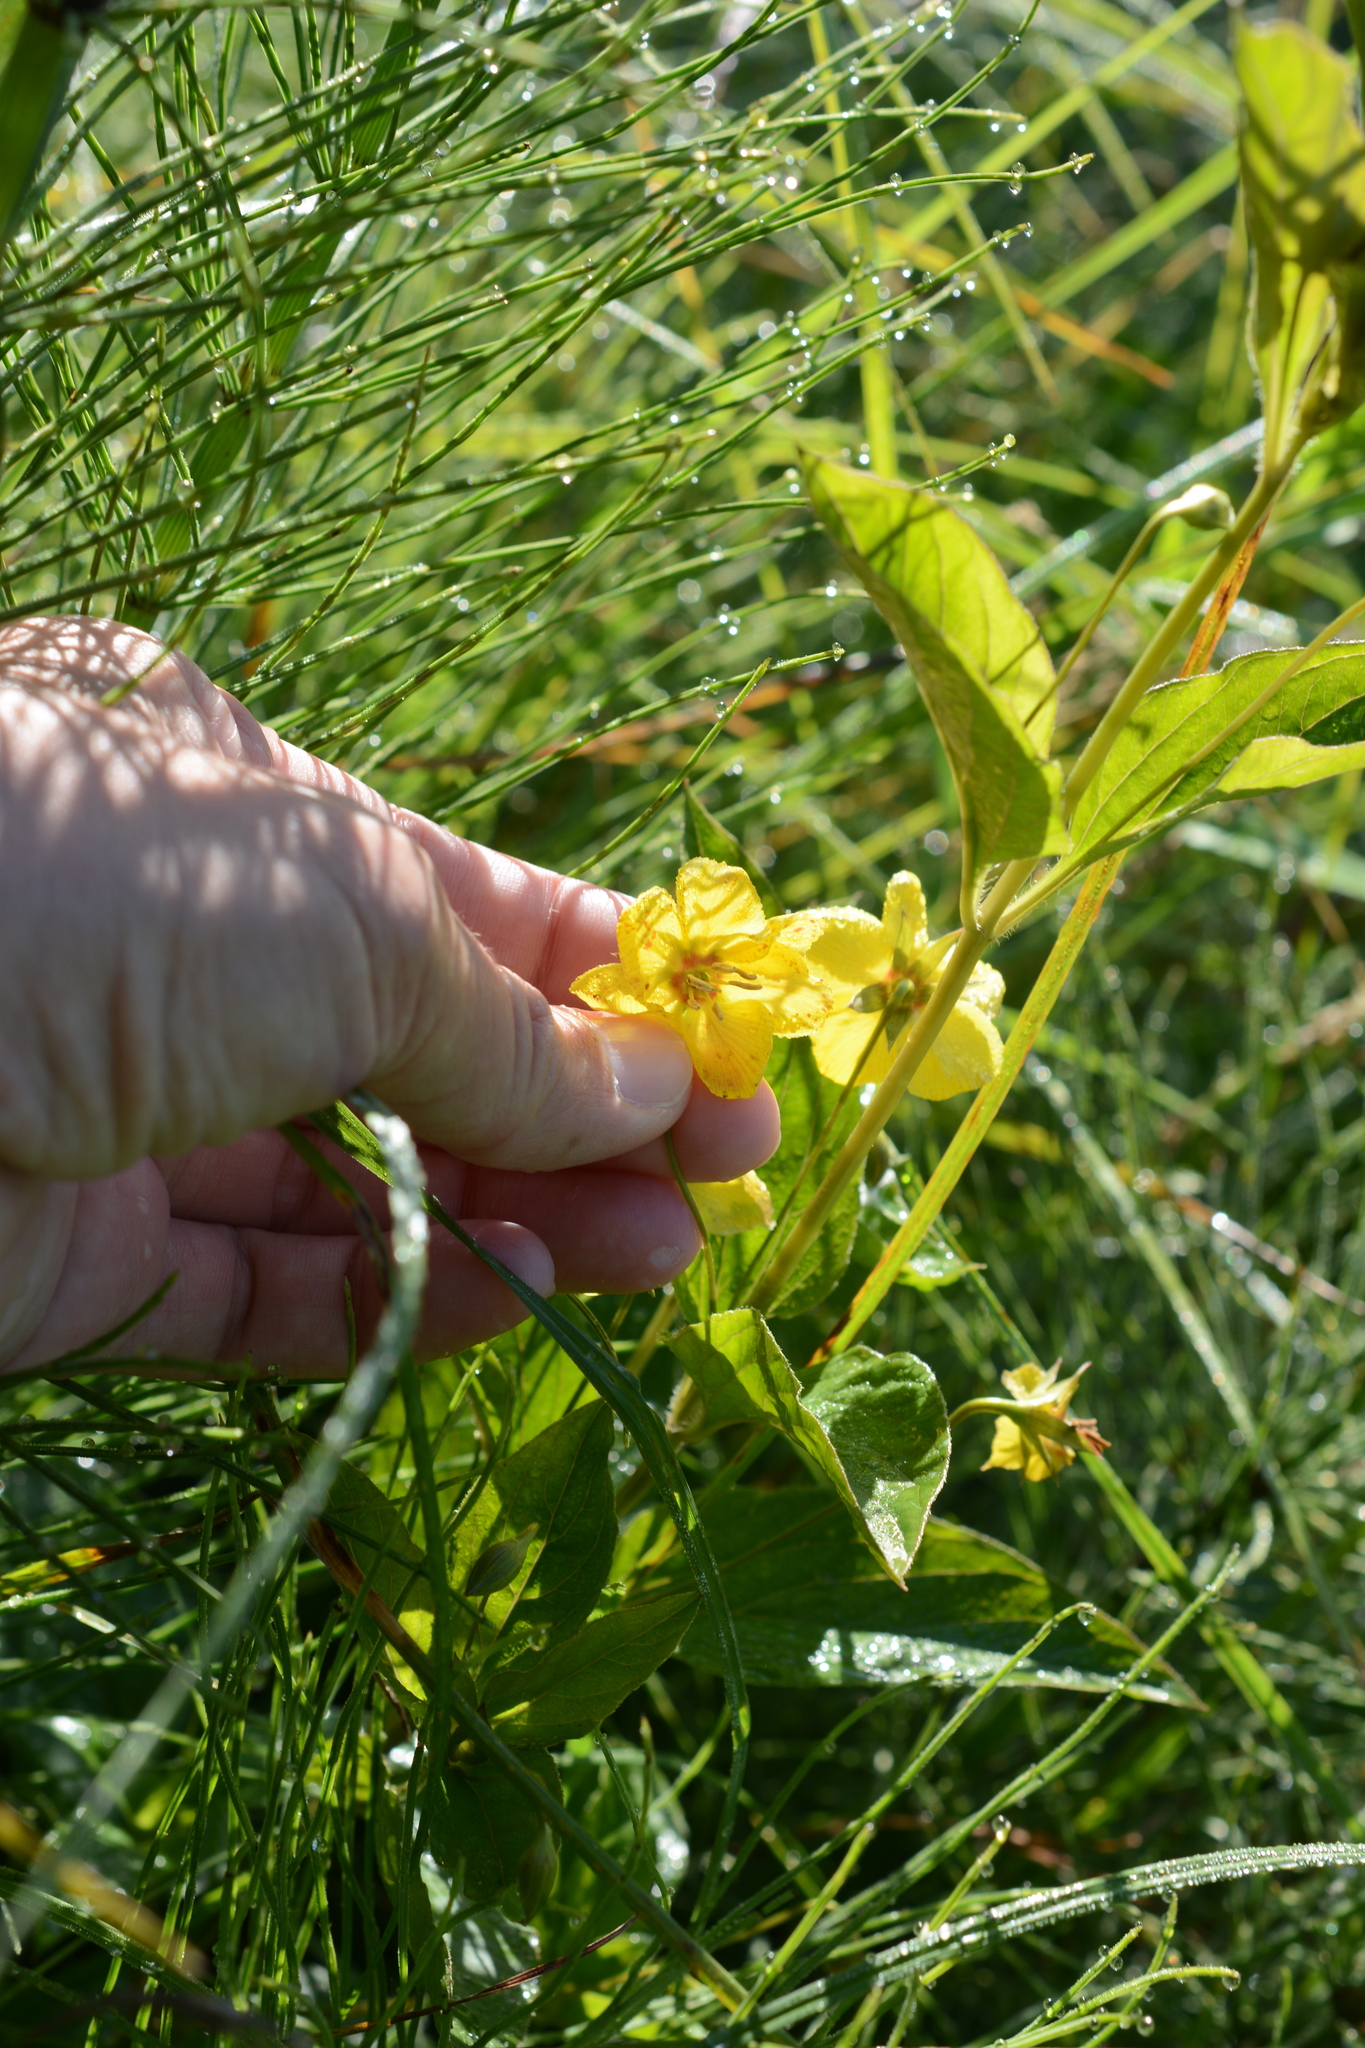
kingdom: Plantae
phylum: Tracheophyta
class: Magnoliopsida
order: Ericales
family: Primulaceae
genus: Lysimachia
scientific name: Lysimachia ciliata
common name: Fringed loosestrife
